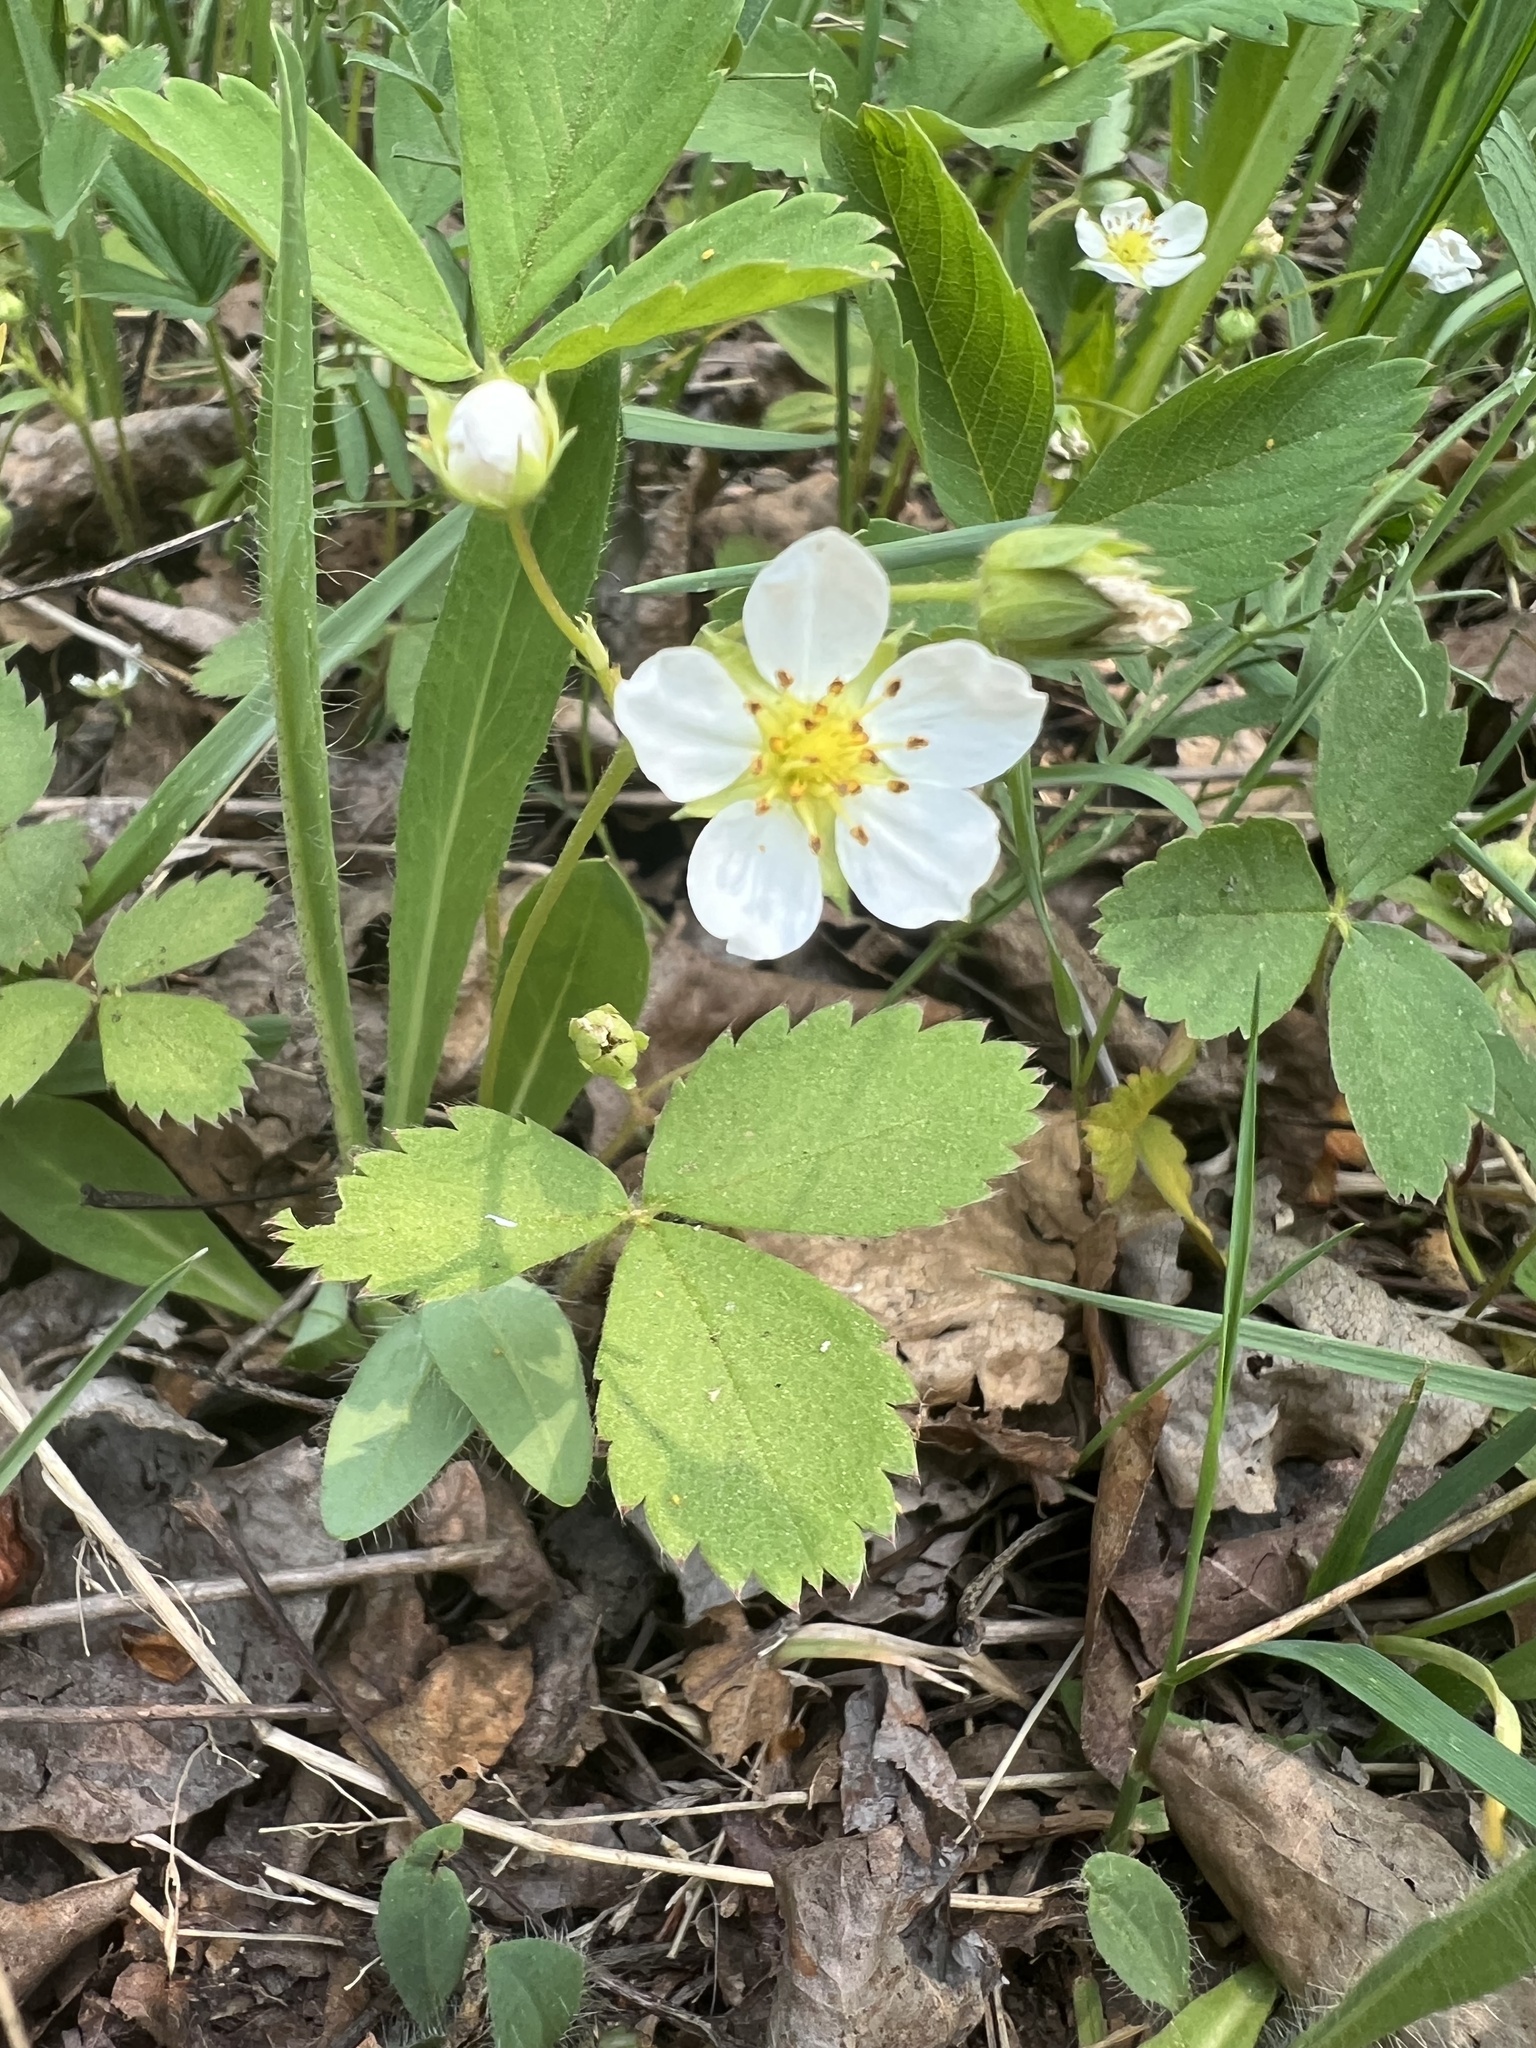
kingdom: Plantae
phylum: Tracheophyta
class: Magnoliopsida
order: Rosales
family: Rosaceae
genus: Fragaria
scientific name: Fragaria virginiana
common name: Thickleaved wild strawberry
